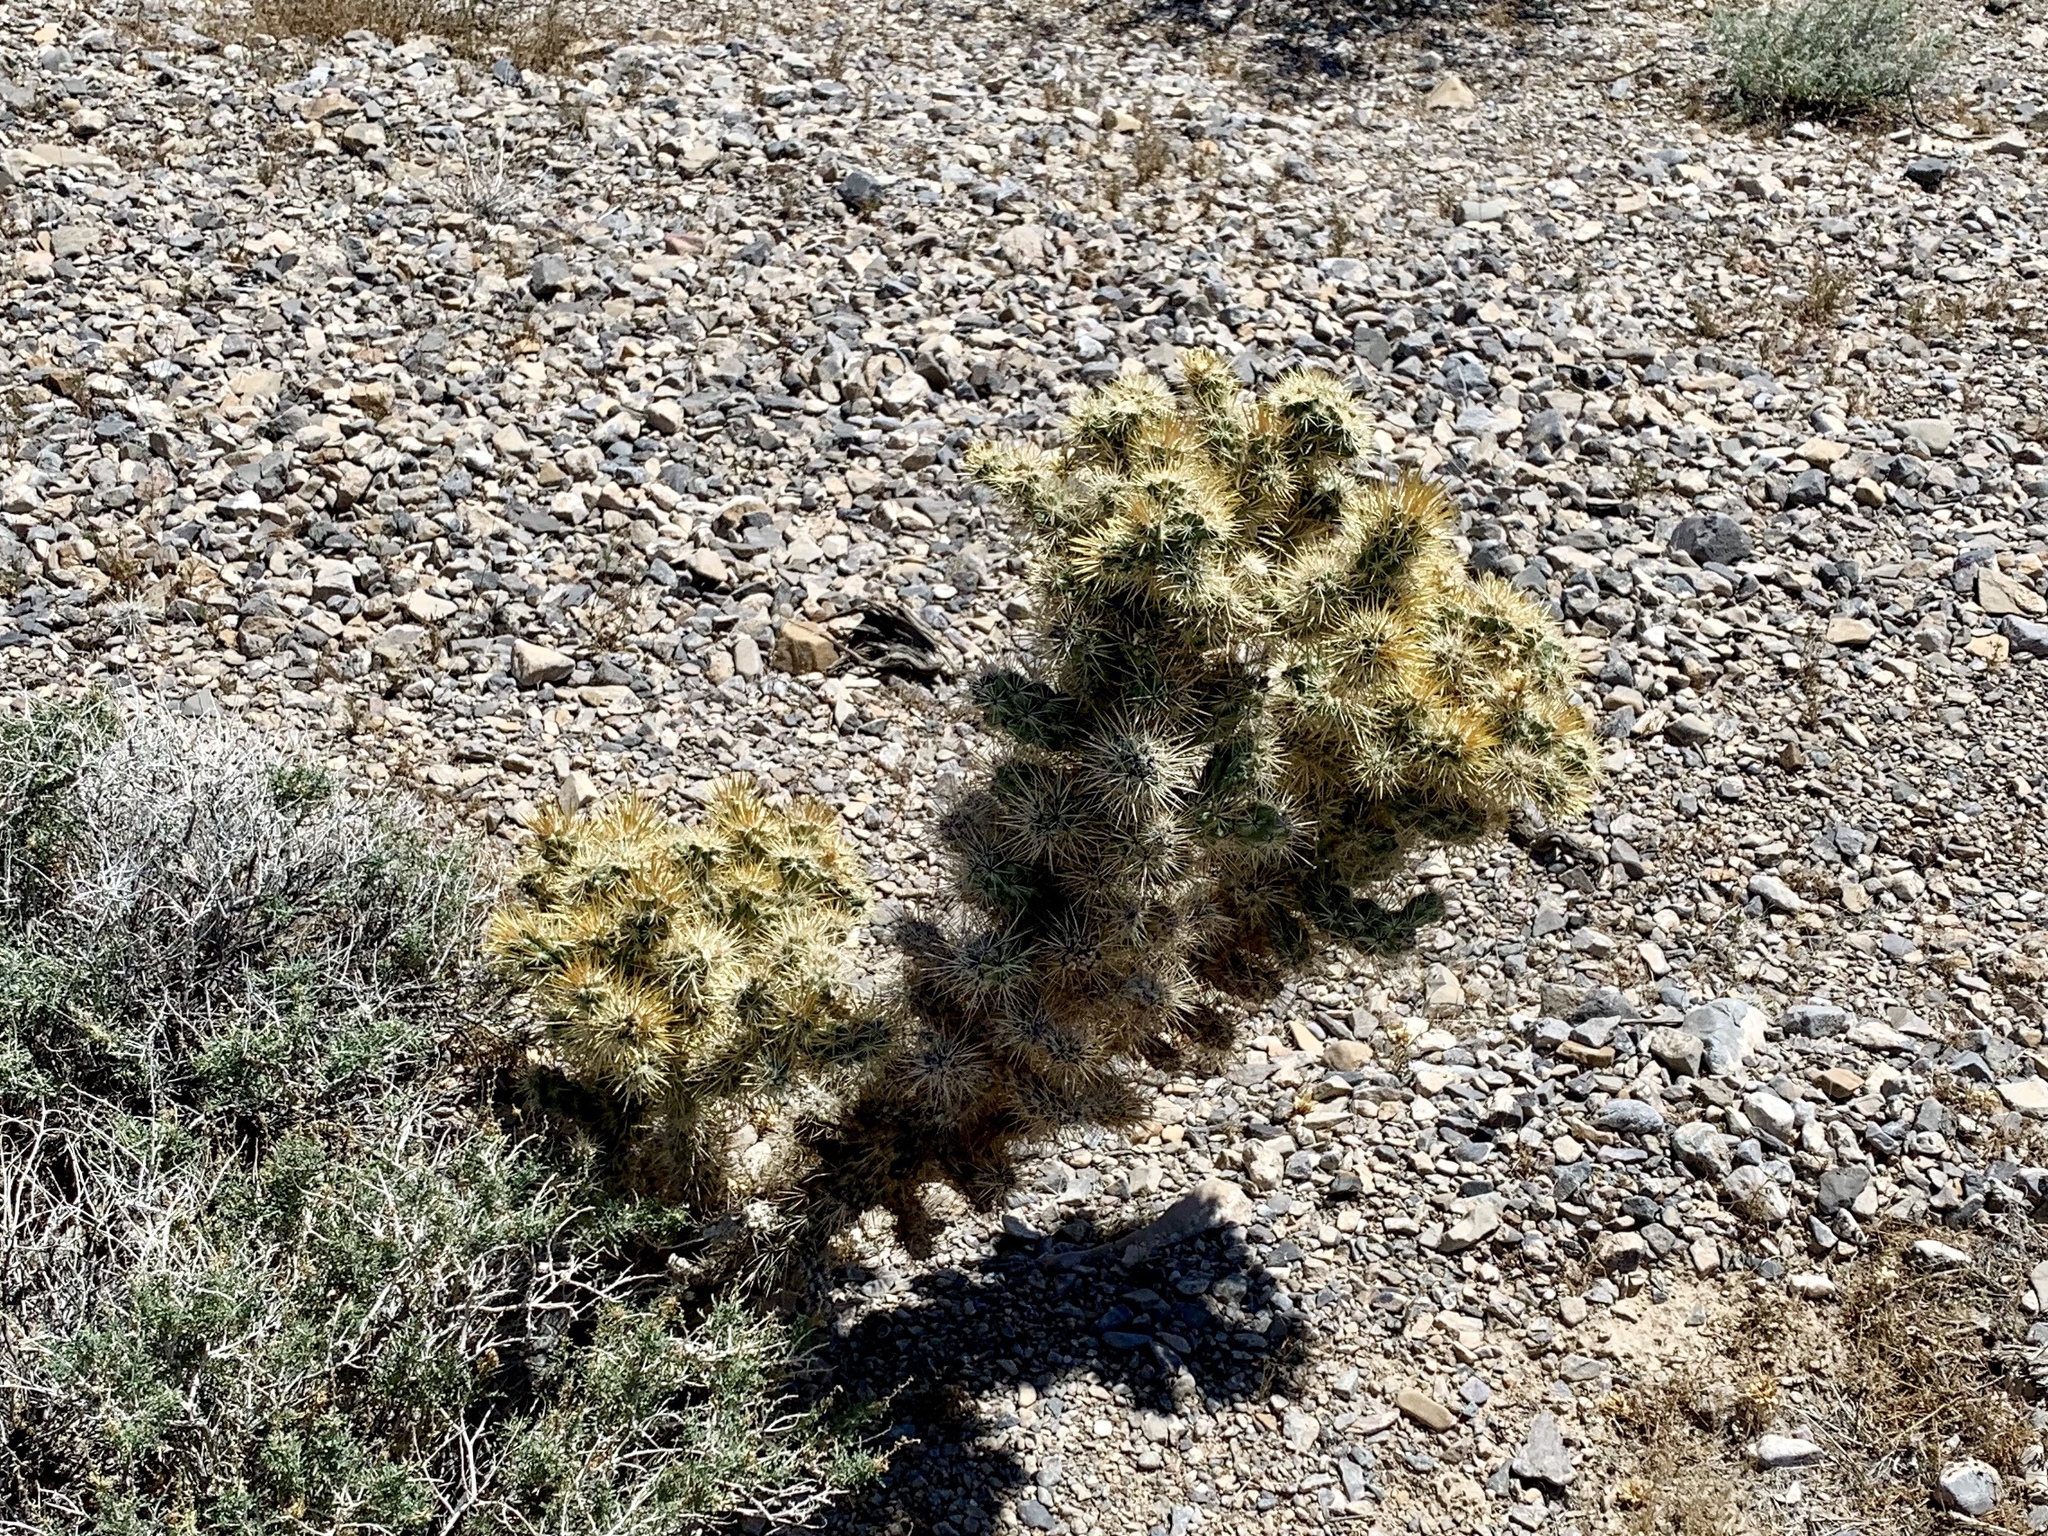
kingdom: Plantae
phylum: Tracheophyta
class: Magnoliopsida
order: Caryophyllales
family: Cactaceae
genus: Cylindropuntia
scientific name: Cylindropuntia acanthocarpa
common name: Buckhorn cholla
